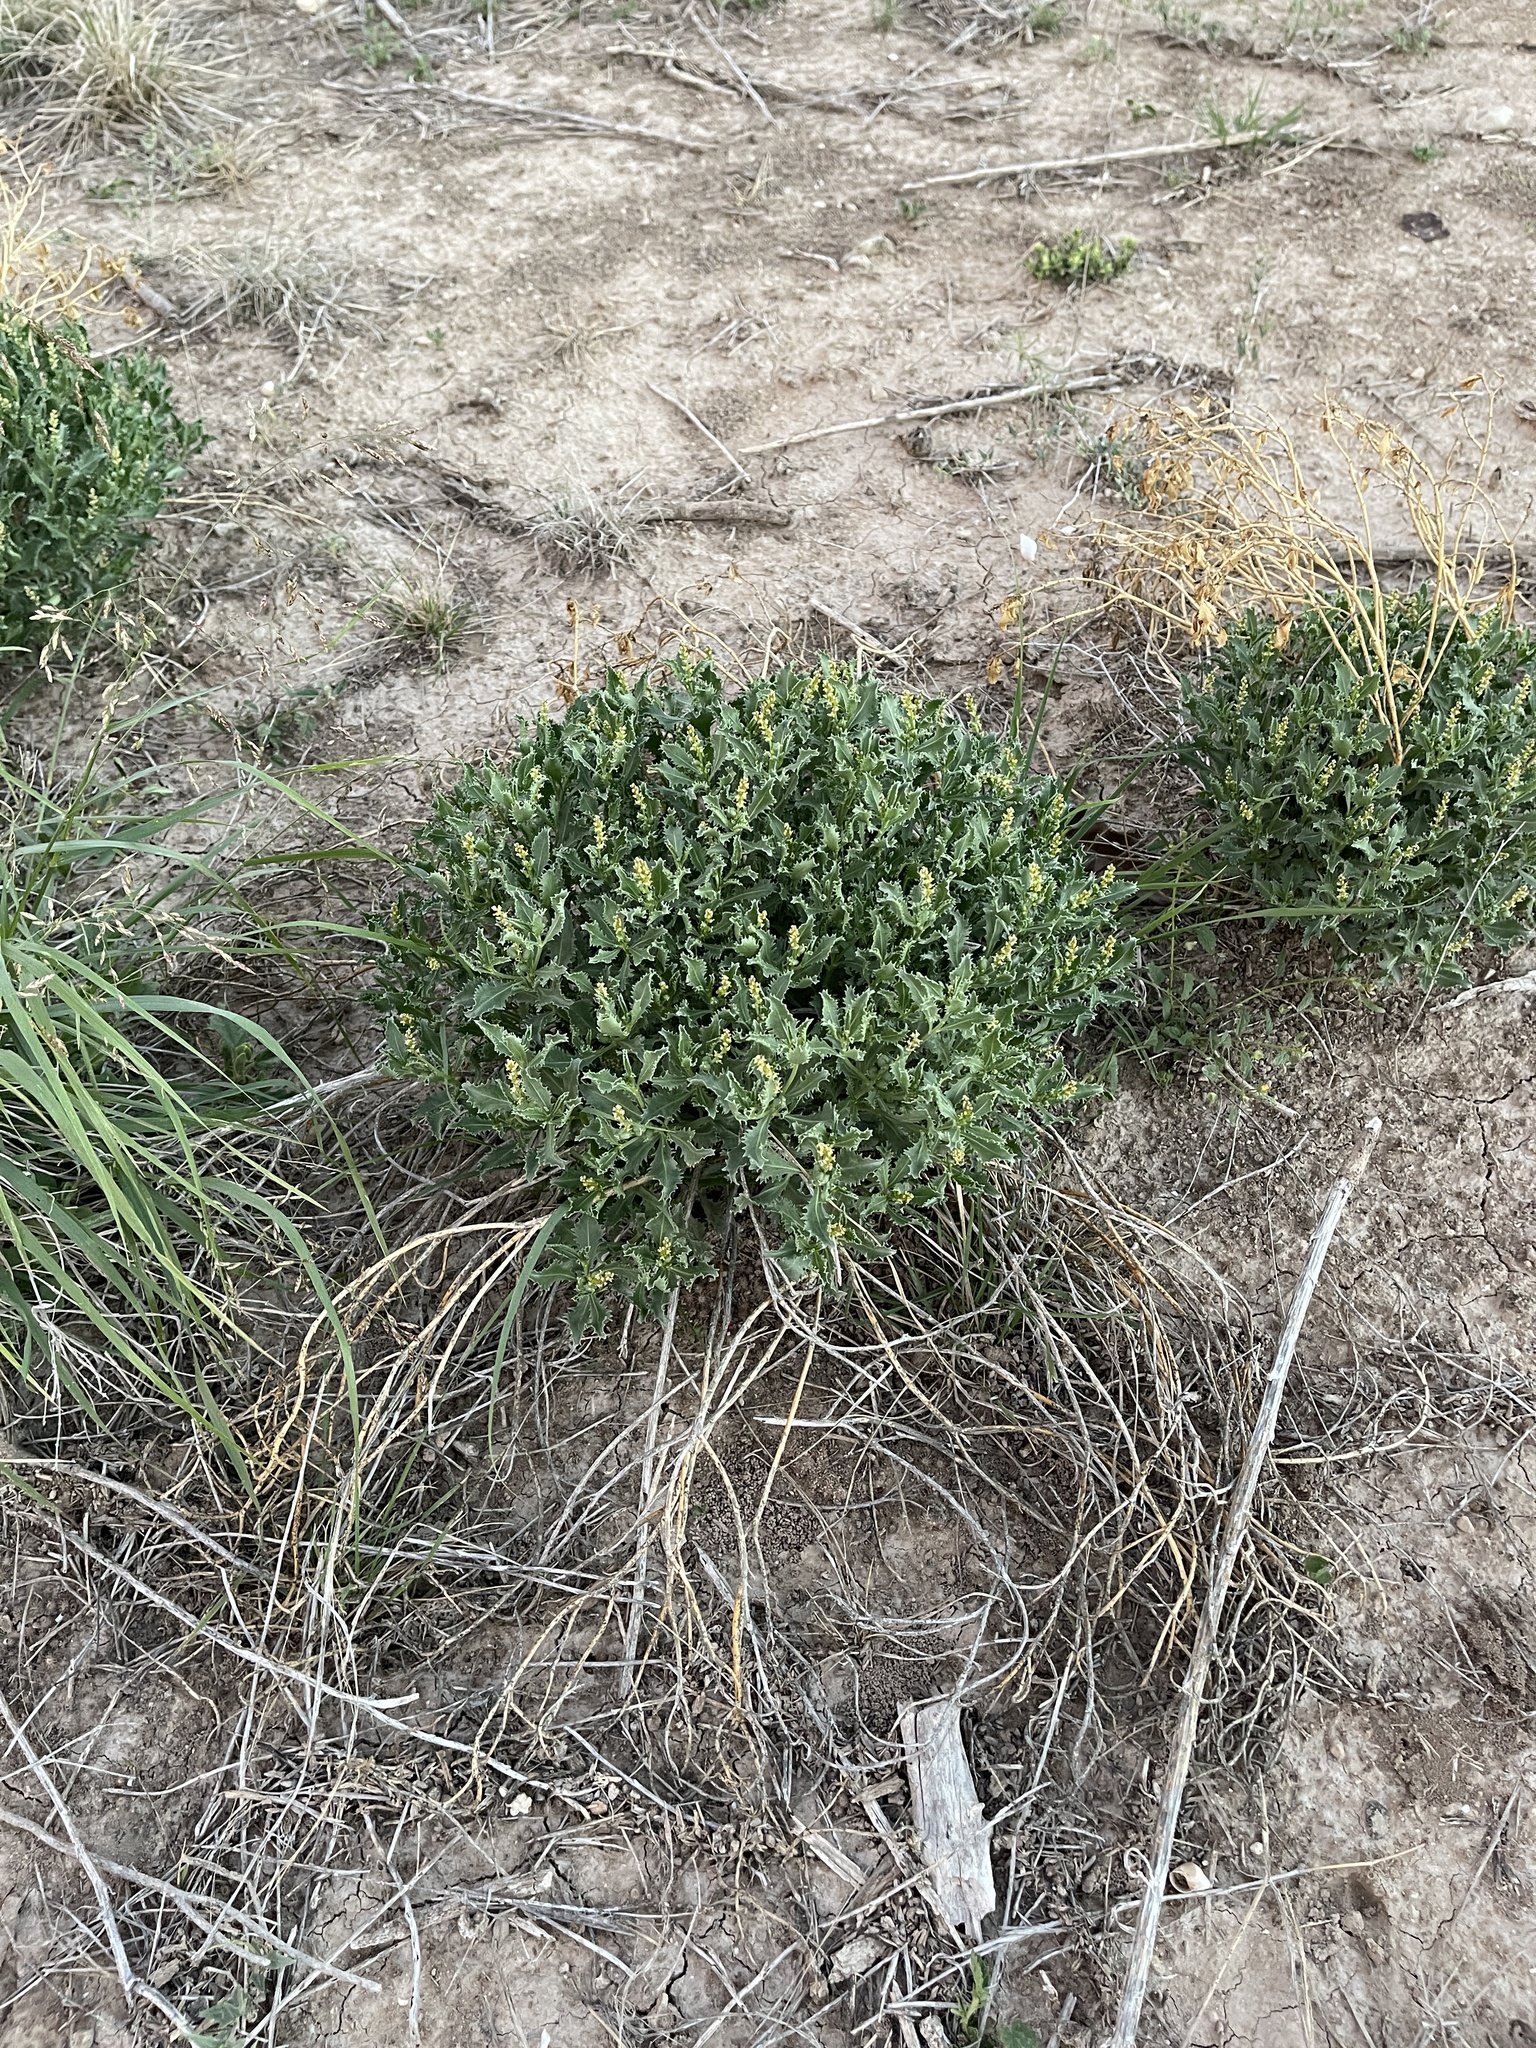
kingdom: Plantae
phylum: Tracheophyta
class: Magnoliopsida
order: Malpighiales
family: Euphorbiaceae
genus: Stillingia
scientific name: Stillingia treculiana
